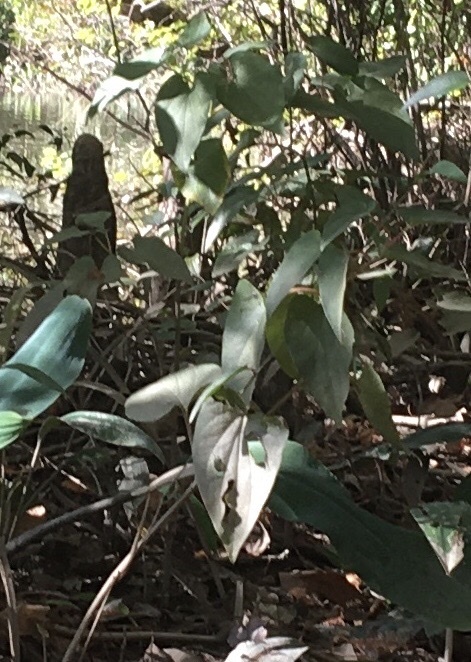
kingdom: Plantae
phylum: Tracheophyta
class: Magnoliopsida
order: Piperales
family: Saururaceae
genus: Saururus
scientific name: Saururus cernuus
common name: Lizard's-tail
